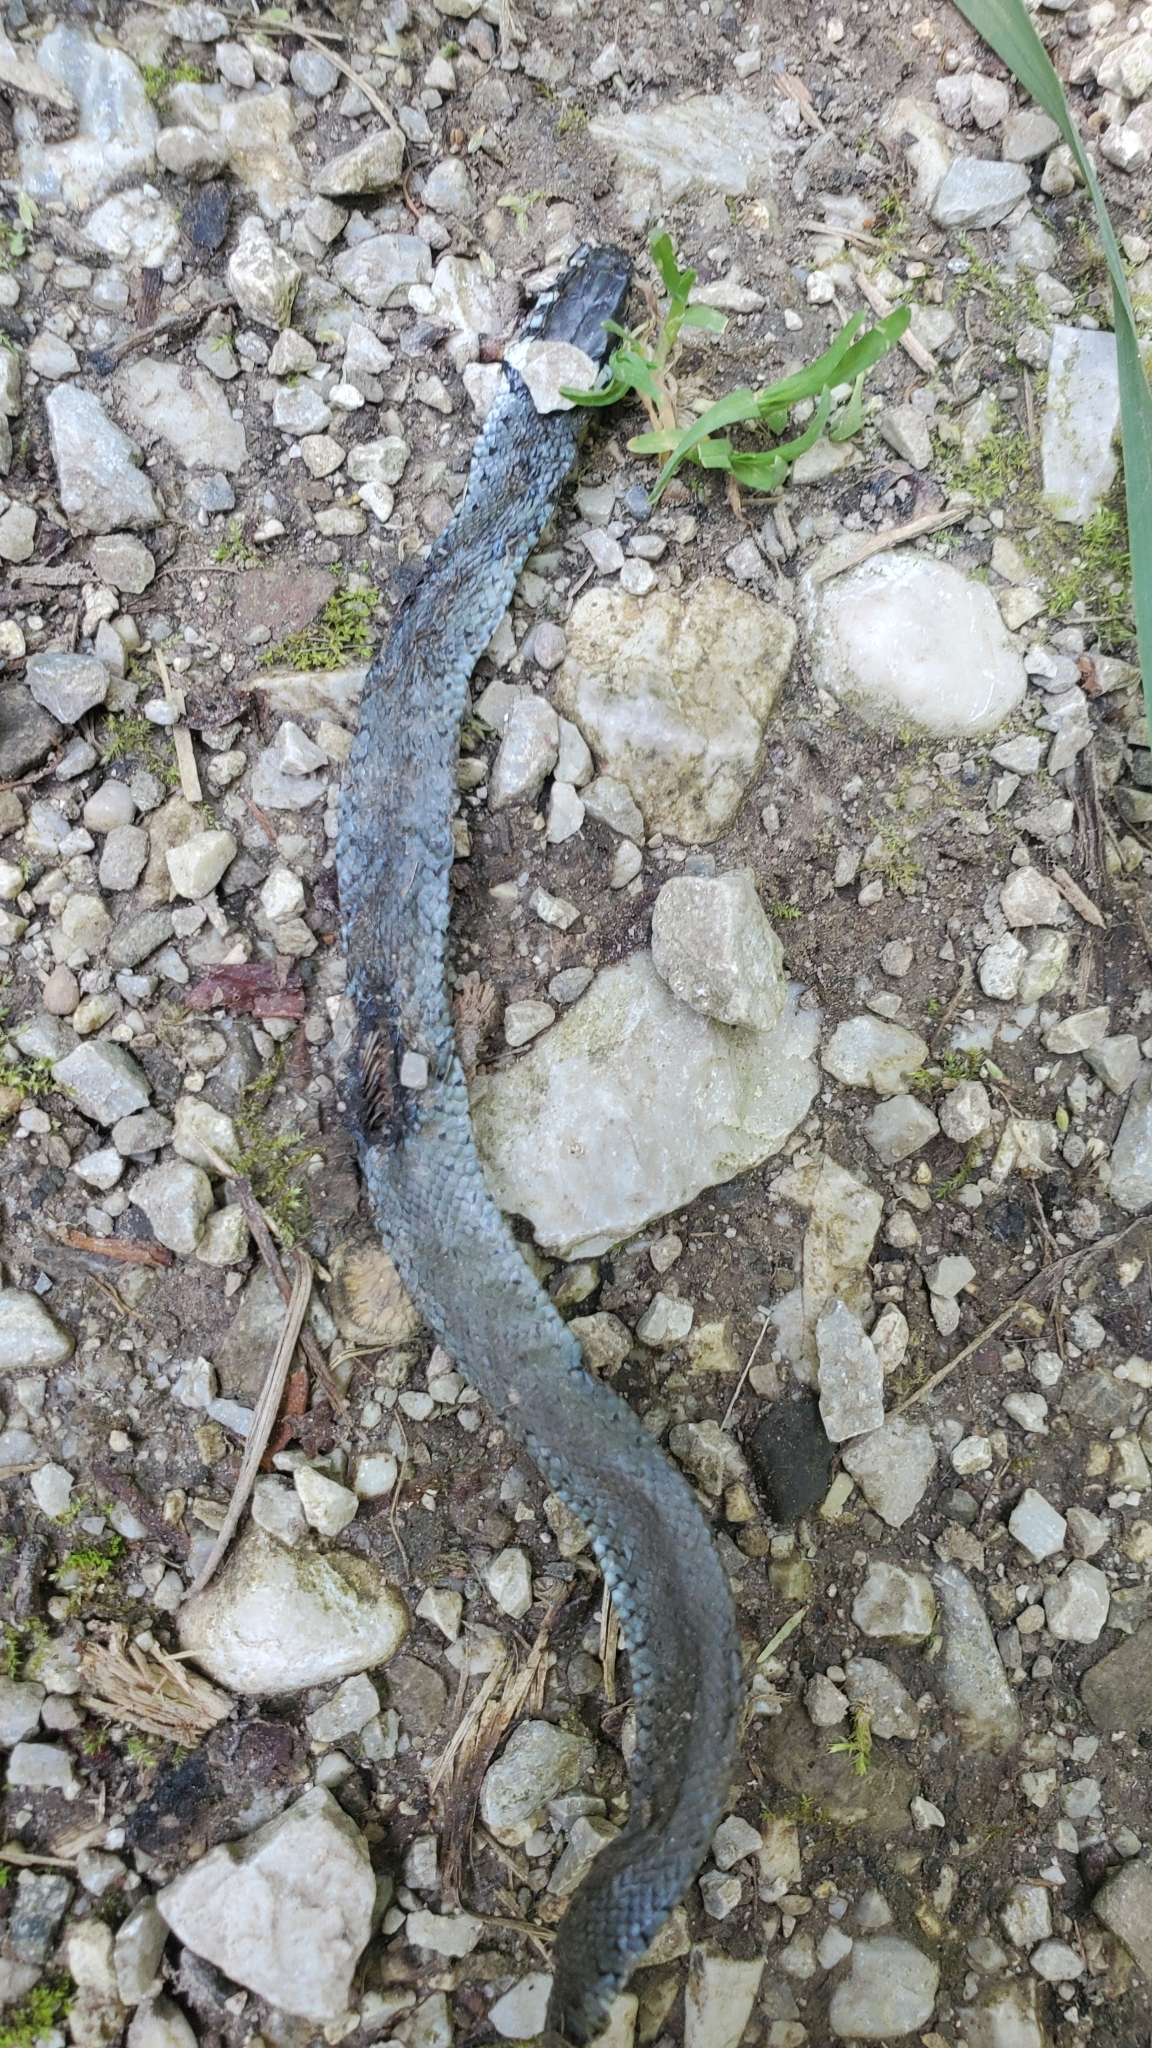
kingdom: Animalia
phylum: Chordata
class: Squamata
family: Colubridae
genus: Natrix
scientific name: Natrix natrix
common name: Grass snake
